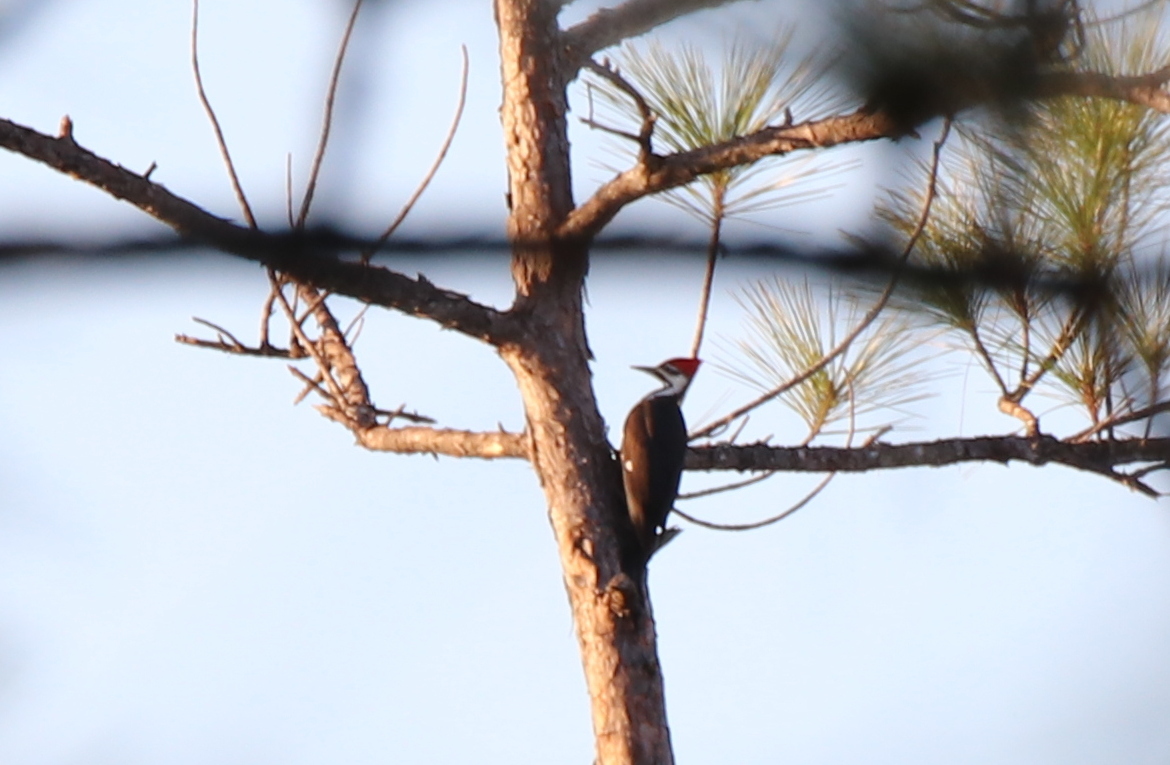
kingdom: Animalia
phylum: Chordata
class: Aves
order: Piciformes
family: Picidae
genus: Dryocopus
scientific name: Dryocopus pileatus
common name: Pileated woodpecker
